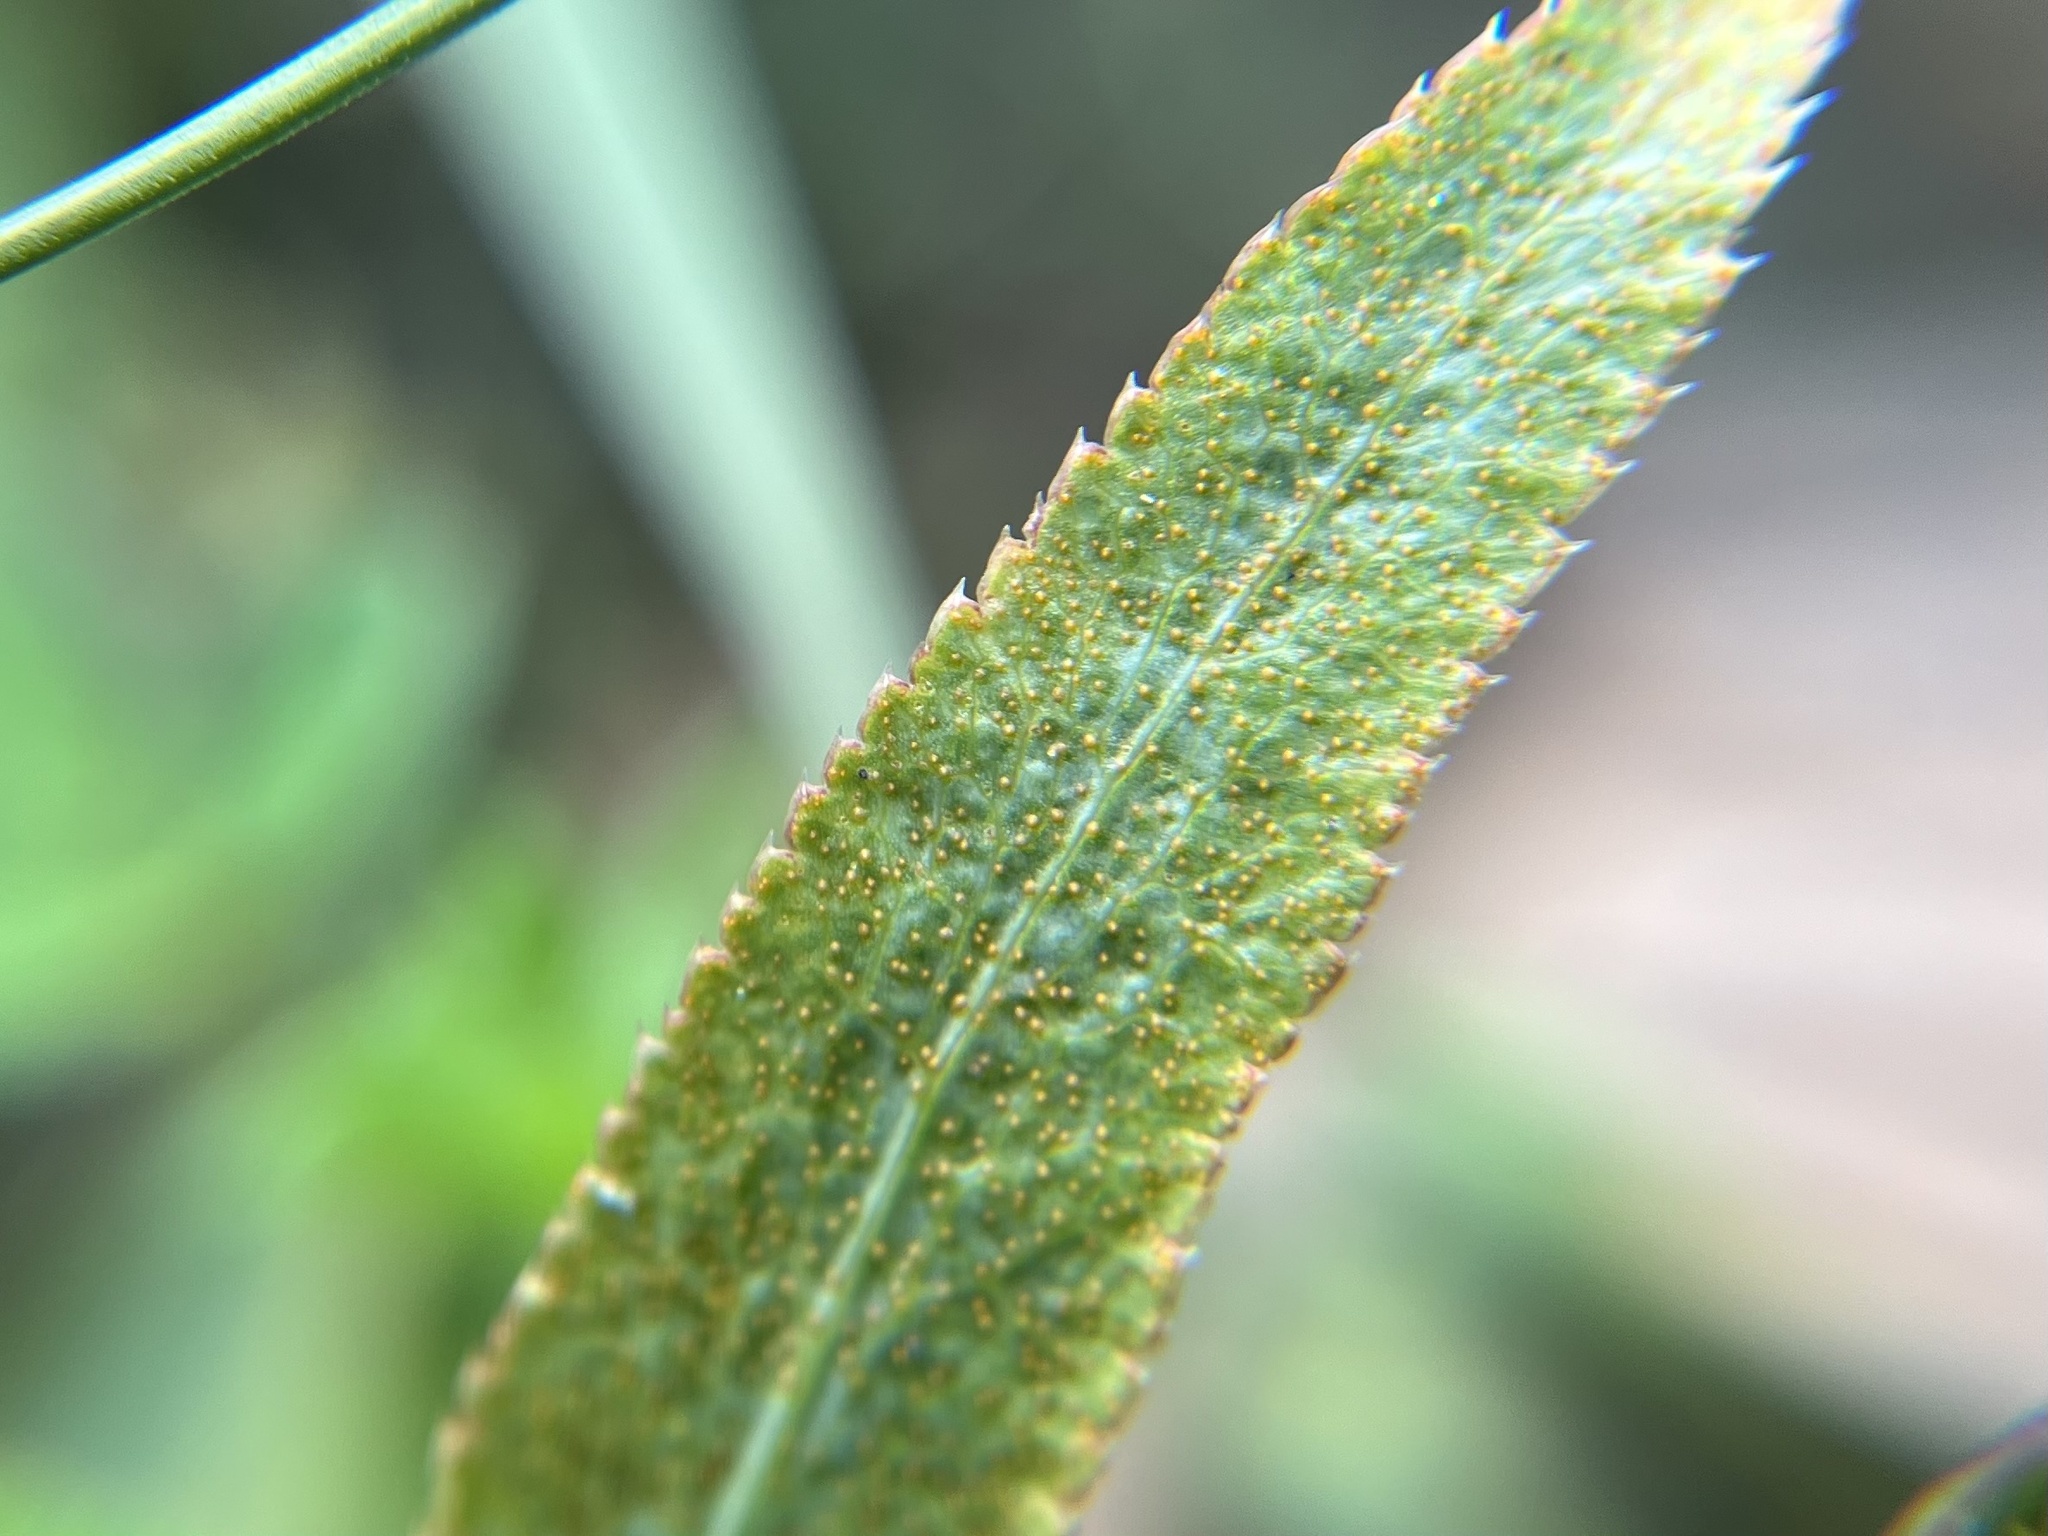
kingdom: Fungi
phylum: Basidiomycota
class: Pucciniomycetes
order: Pucciniales
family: Pucciniaceae
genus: Puccinia
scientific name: Puccinia sii-falcariae
